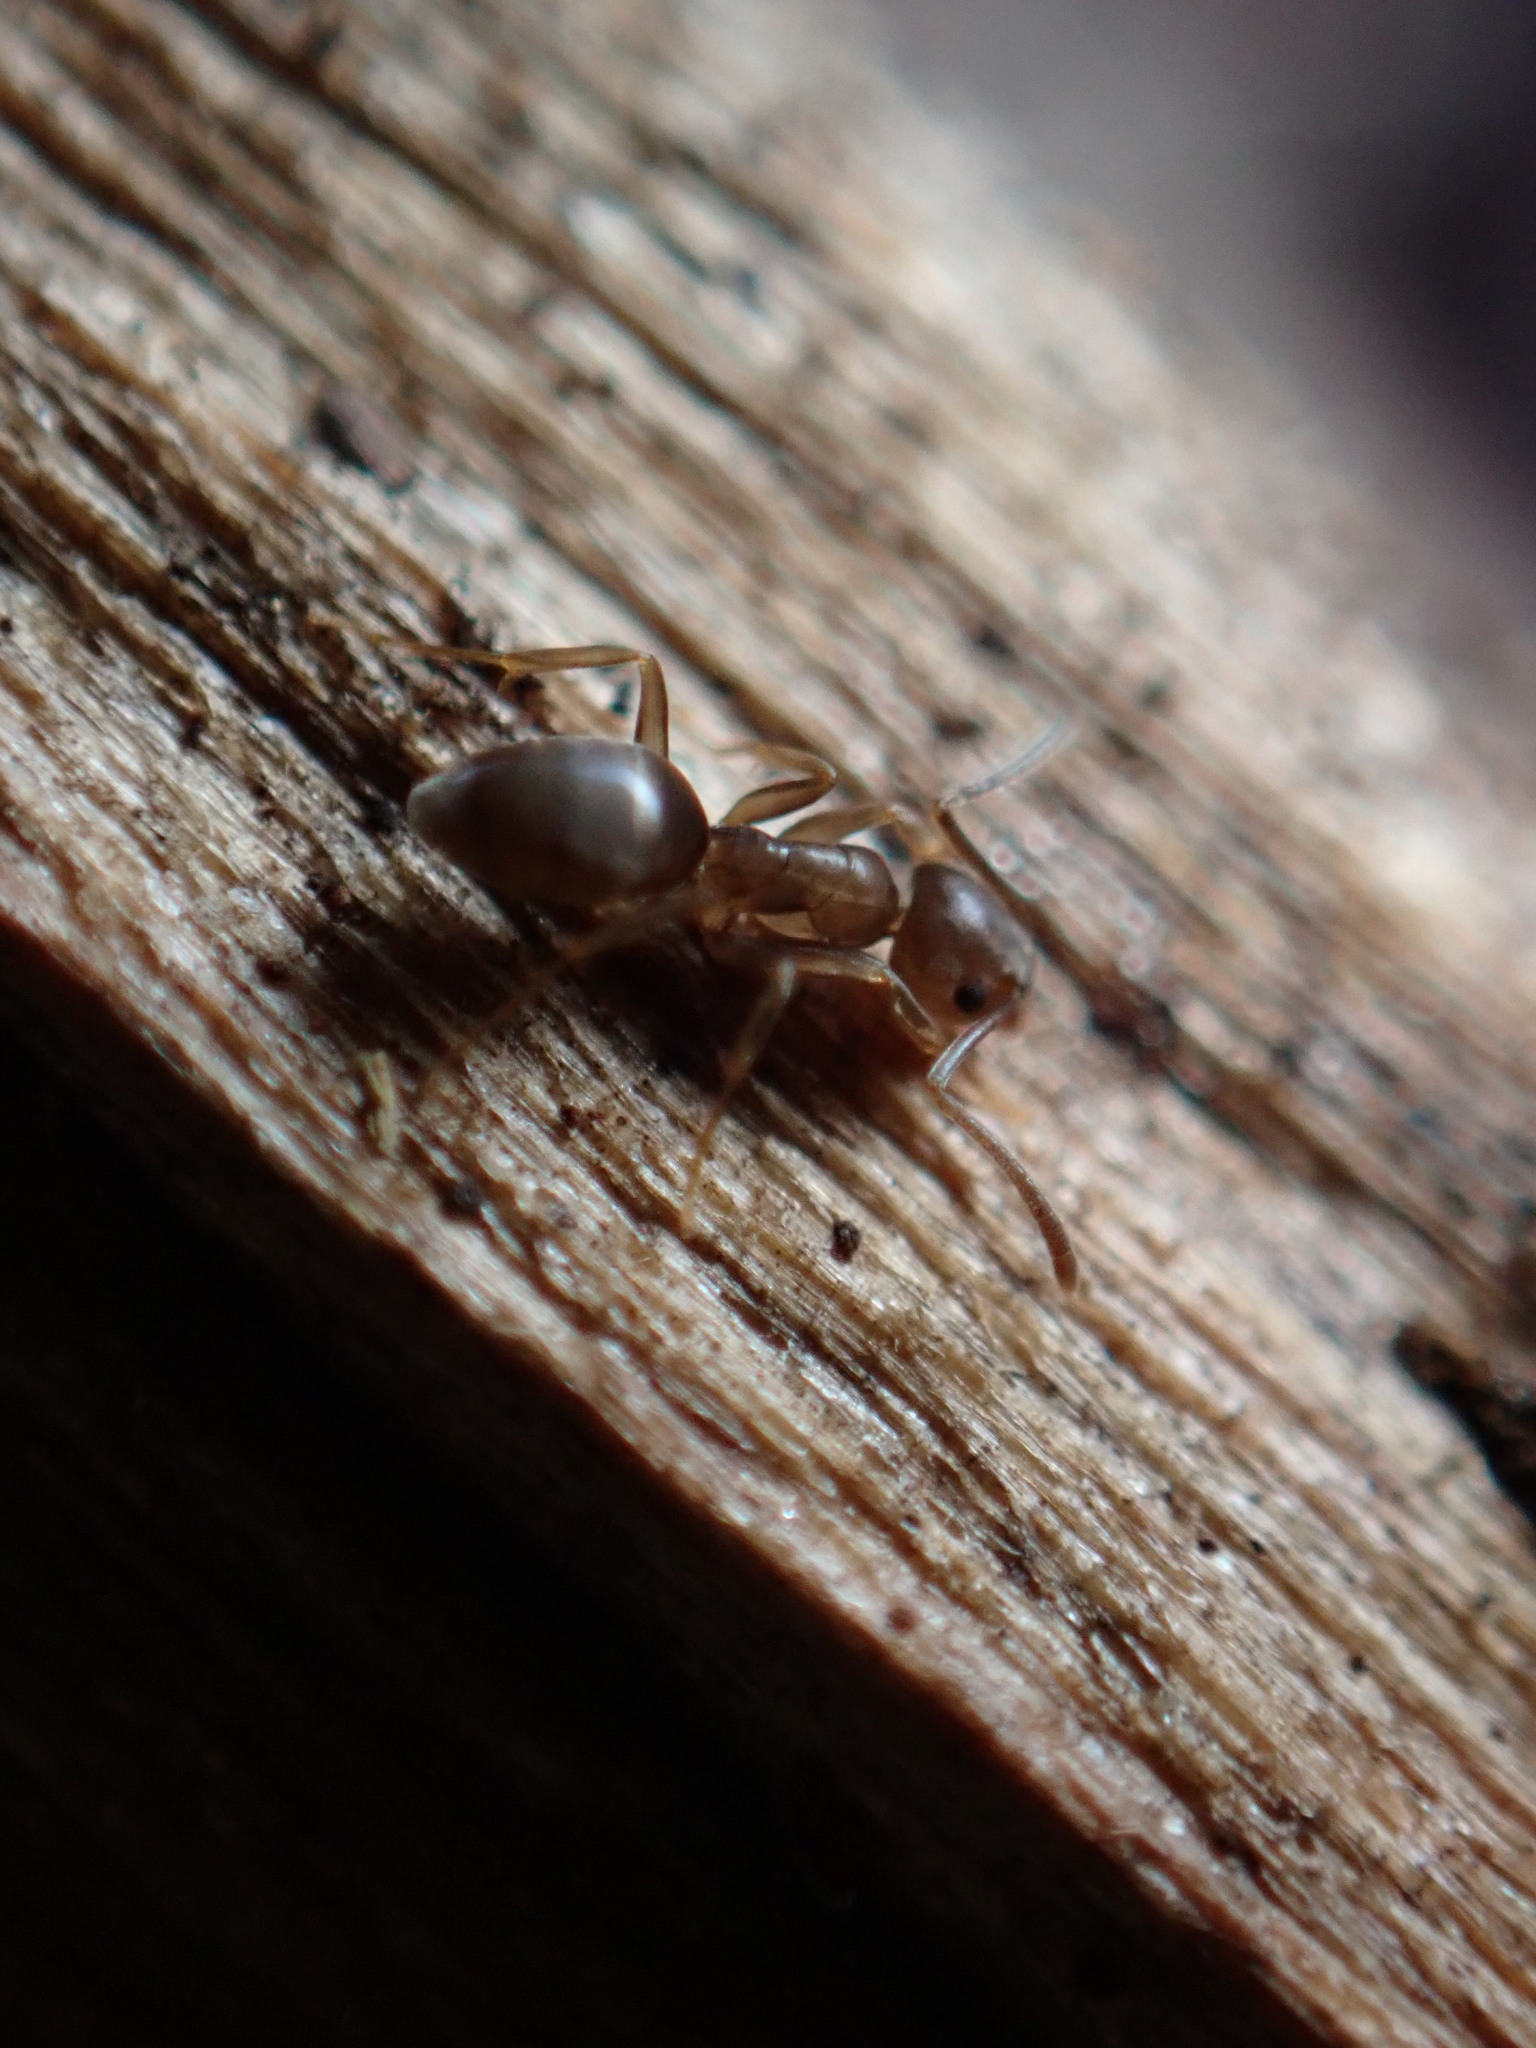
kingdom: Animalia
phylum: Arthropoda
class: Insecta
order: Hymenoptera
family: Formicidae
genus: Tapinoma
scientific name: Tapinoma sessile
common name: Odorous house ant
